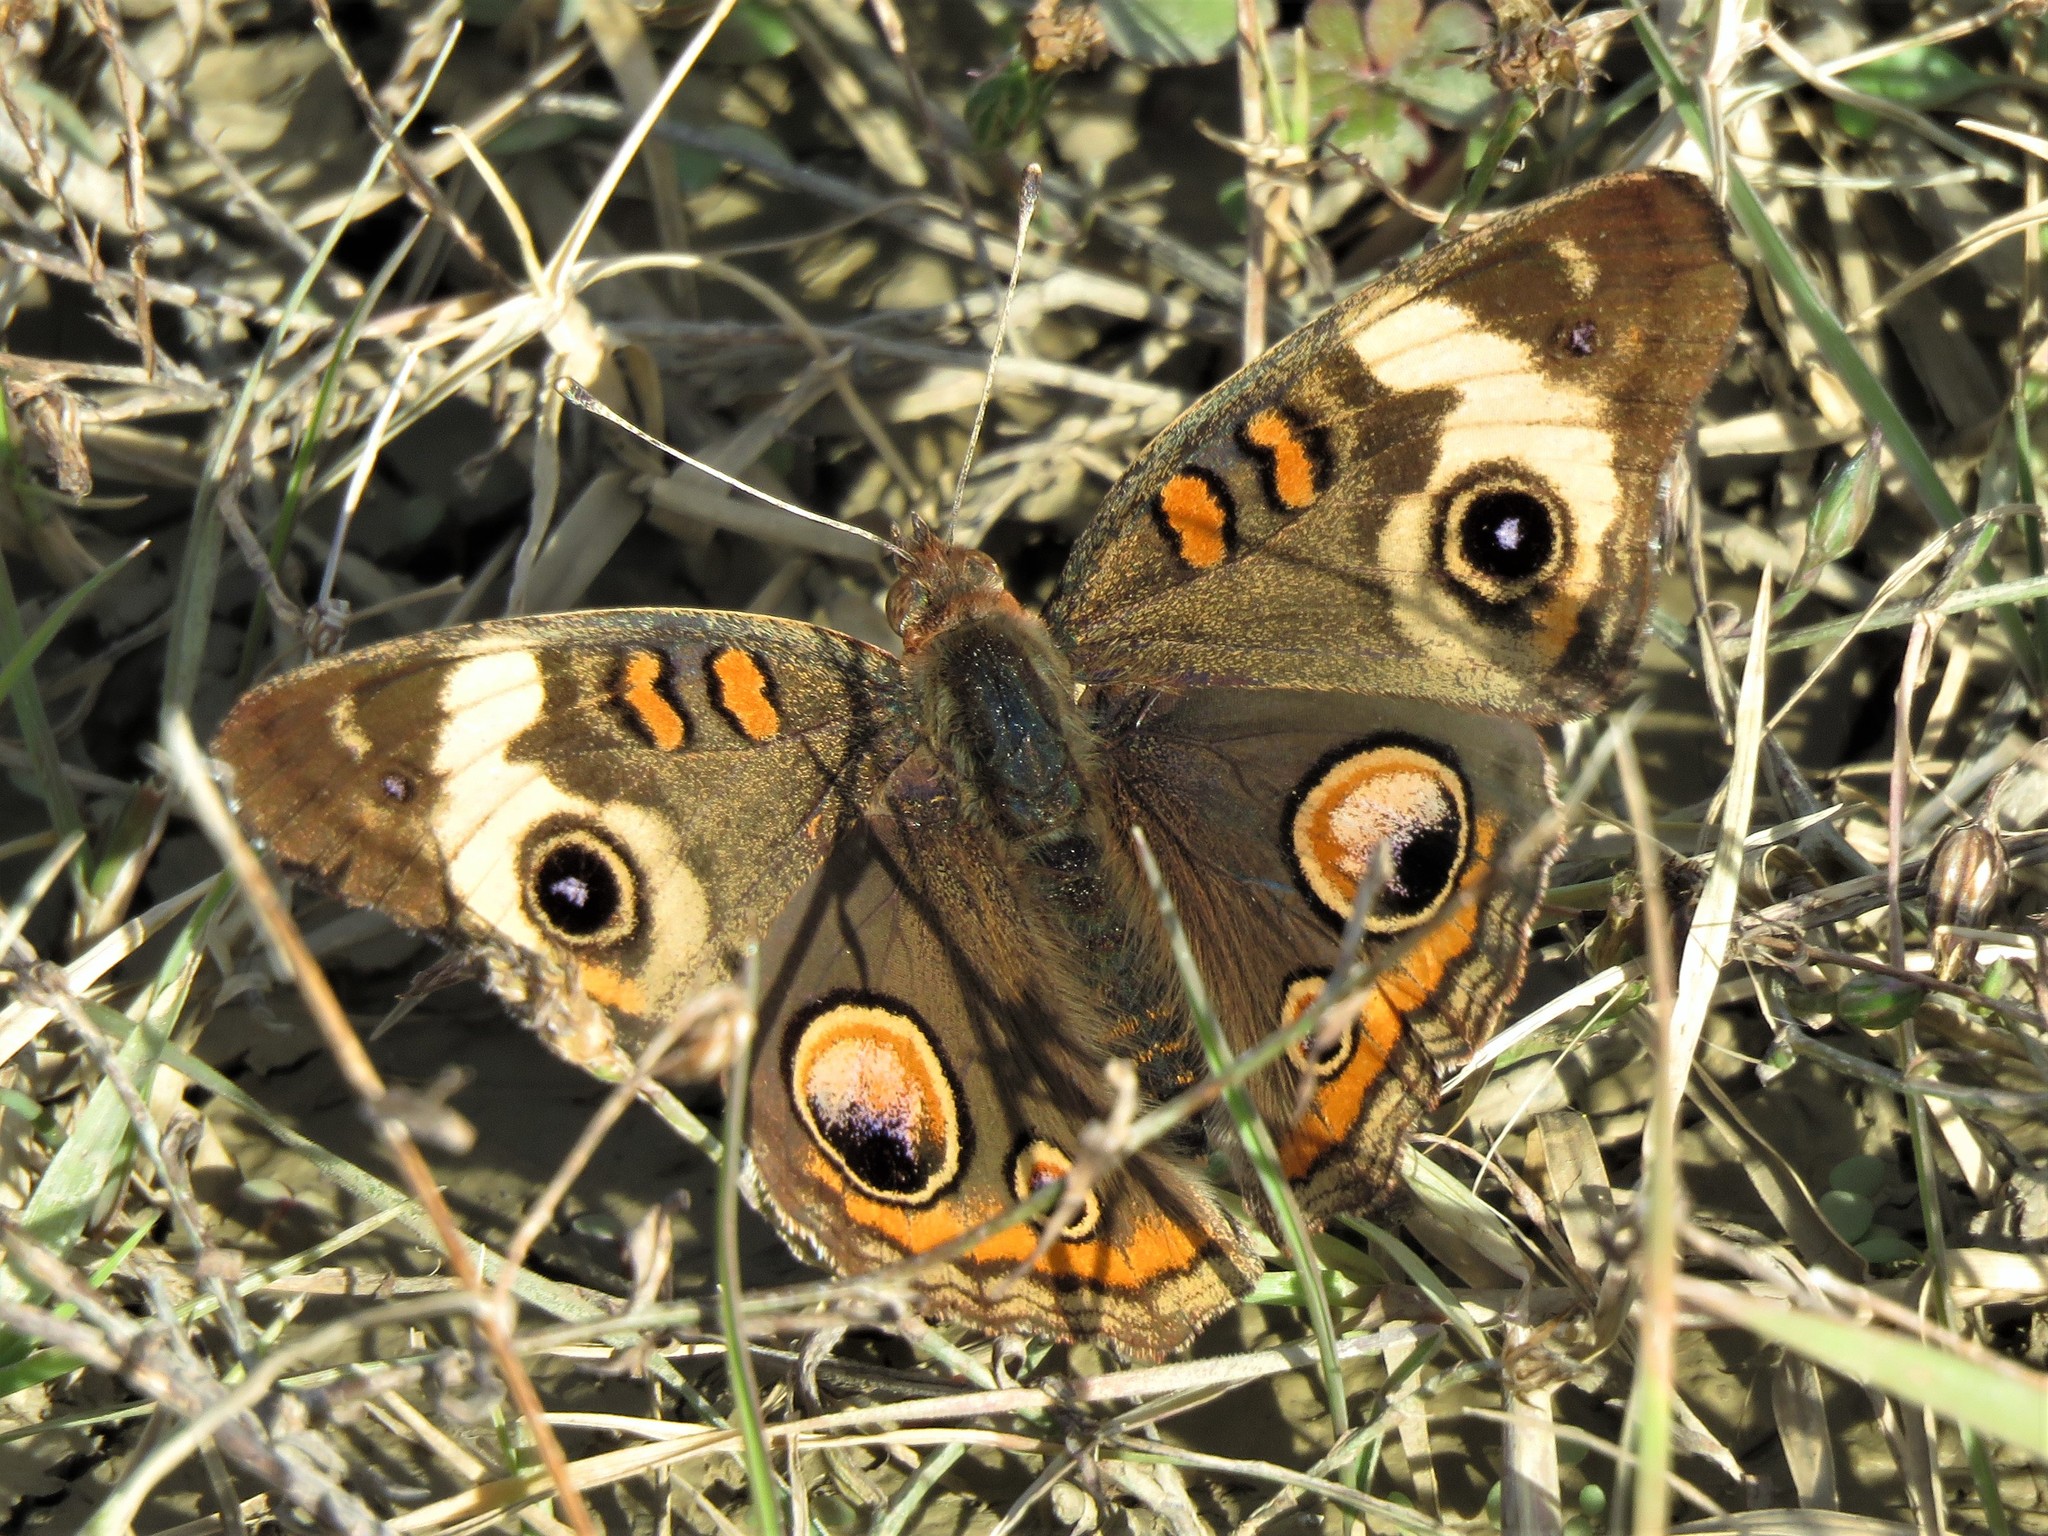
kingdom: Animalia
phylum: Arthropoda
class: Insecta
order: Lepidoptera
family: Nymphalidae
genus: Junonia
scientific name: Junonia coenia
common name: Common buckeye
